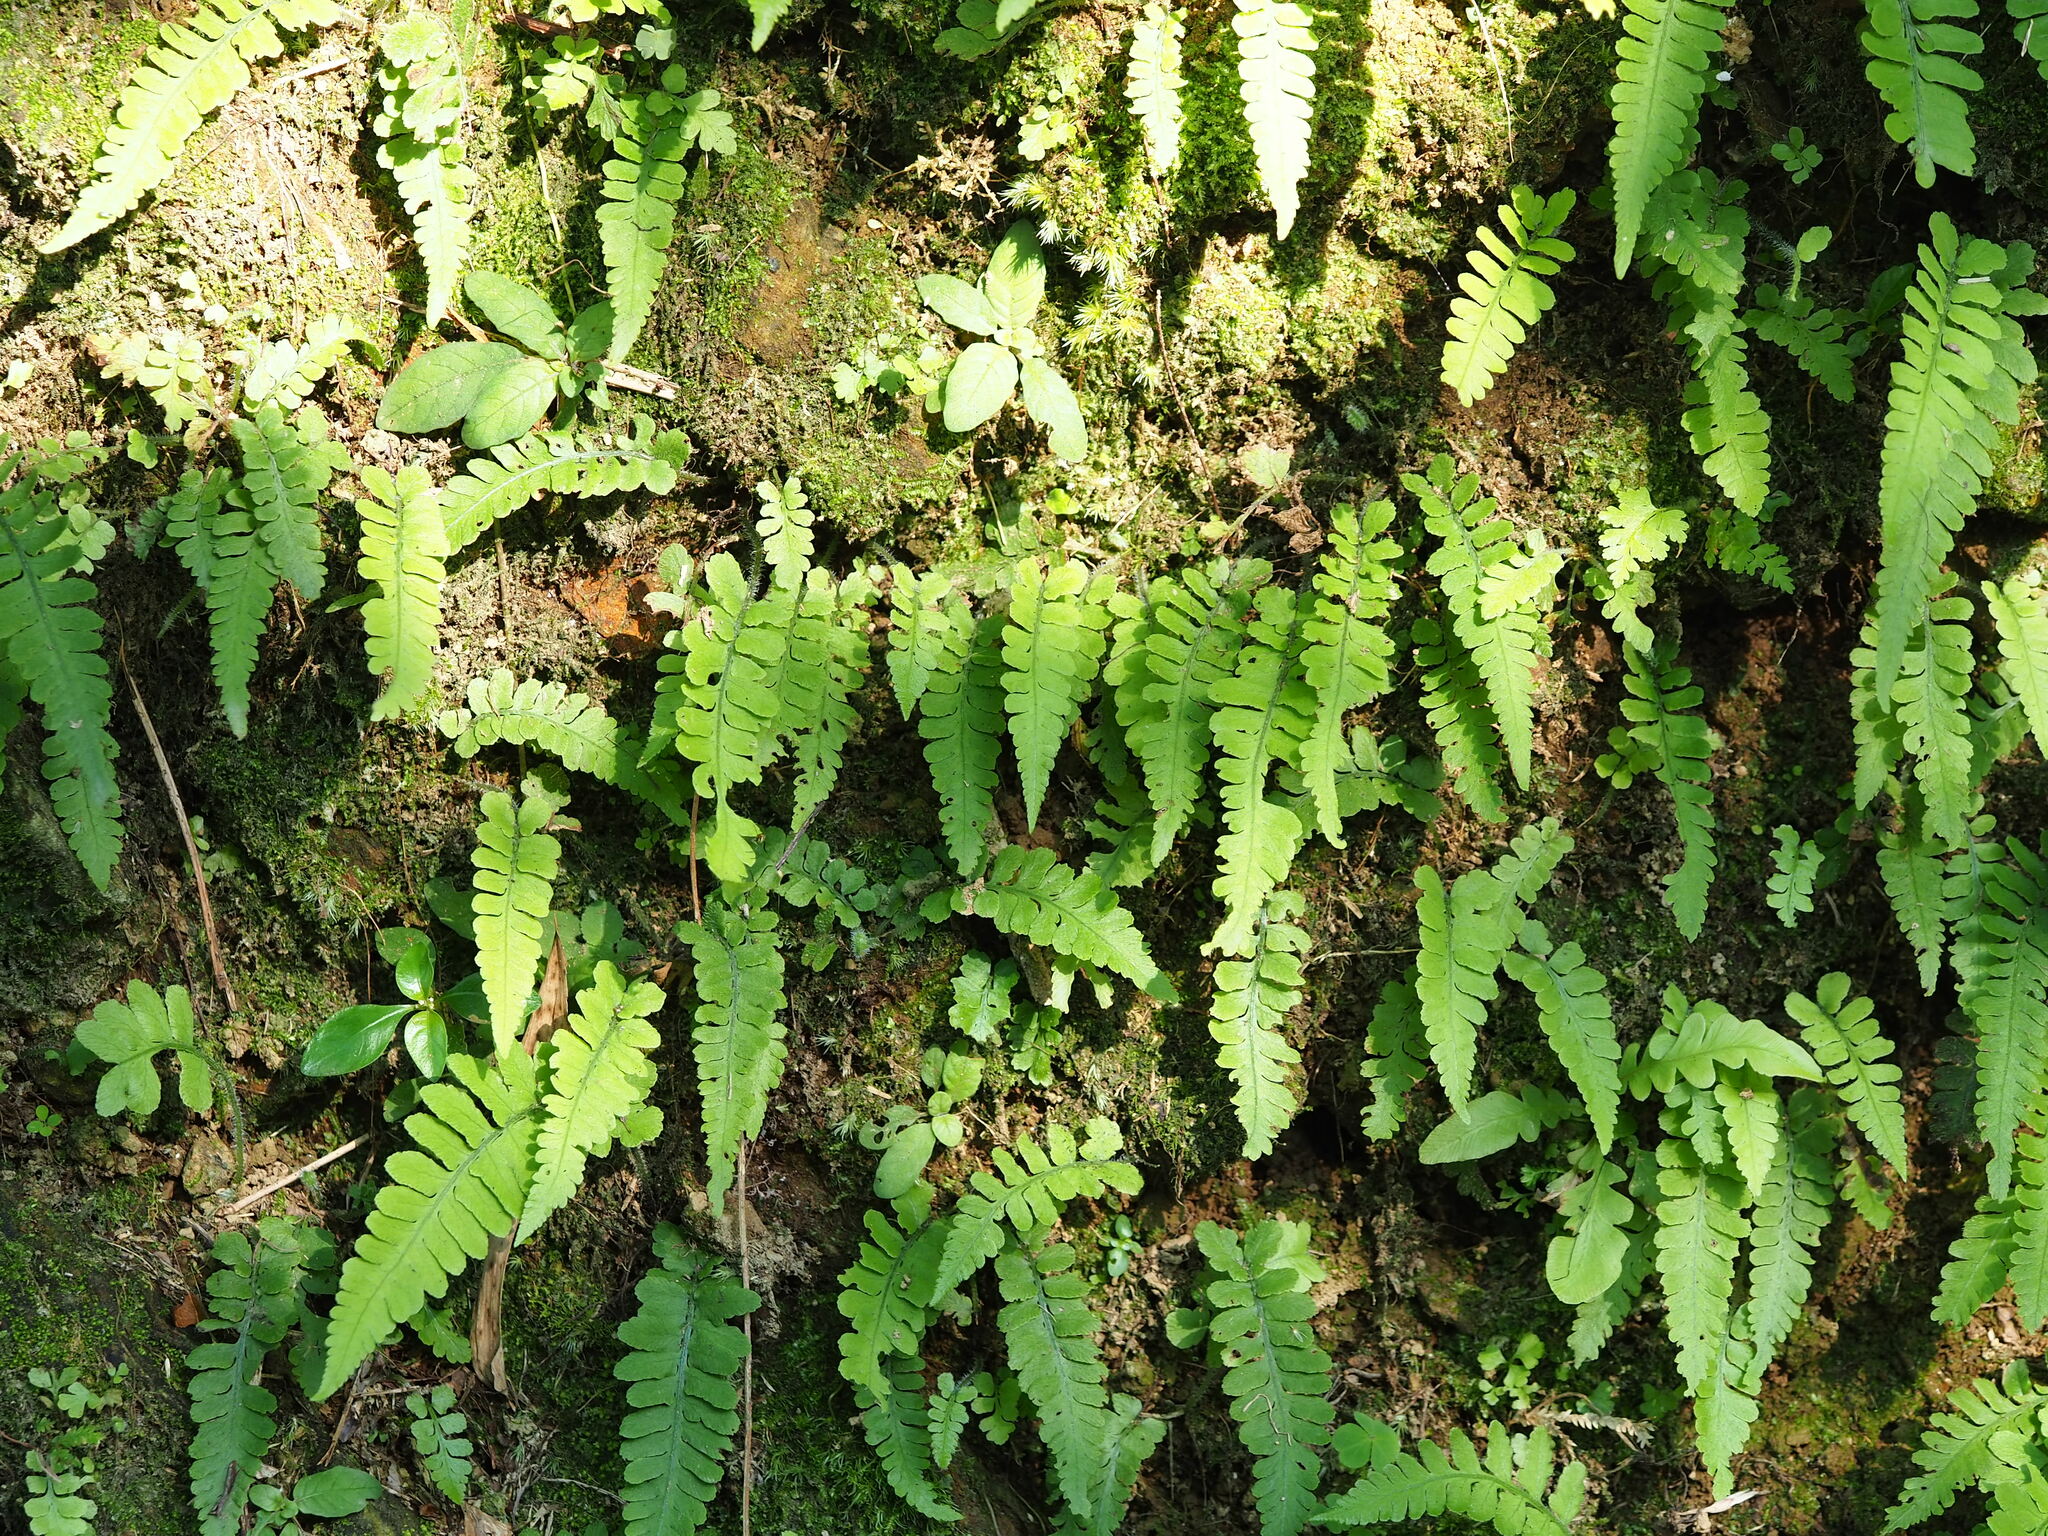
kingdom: Plantae
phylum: Tracheophyta
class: Polypodiopsida
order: Polypodiales
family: Athyriaceae
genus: Deparia
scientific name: Deparia petersenii
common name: Japanese false spleenwort
